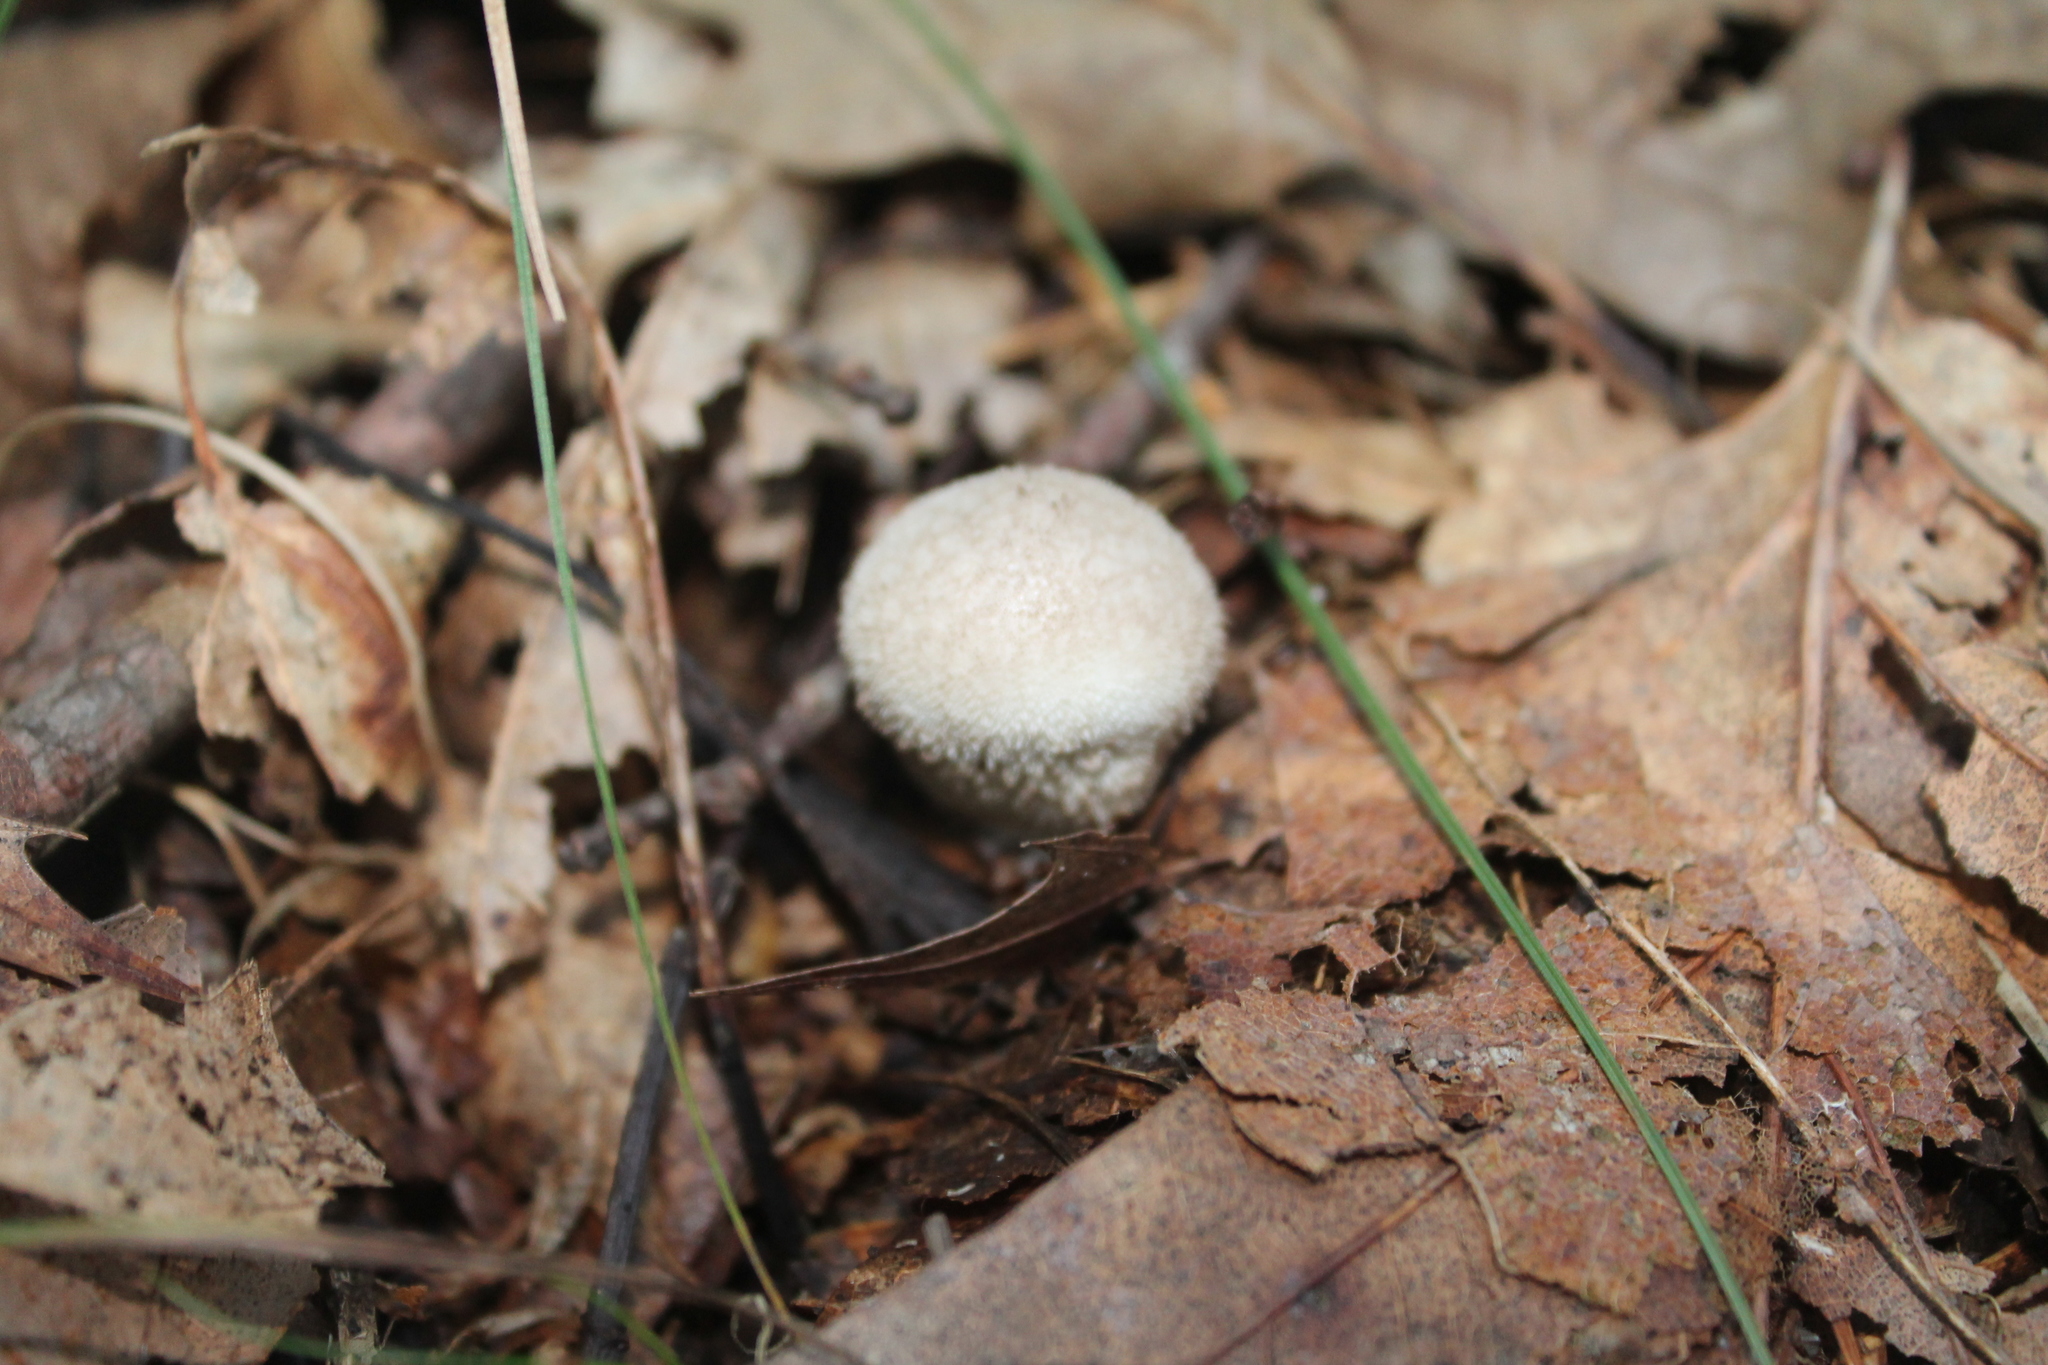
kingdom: Fungi
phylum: Basidiomycota
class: Agaricomycetes
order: Agaricales
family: Lycoperdaceae
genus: Lycoperdon
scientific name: Lycoperdon perlatum
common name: Common puffball
